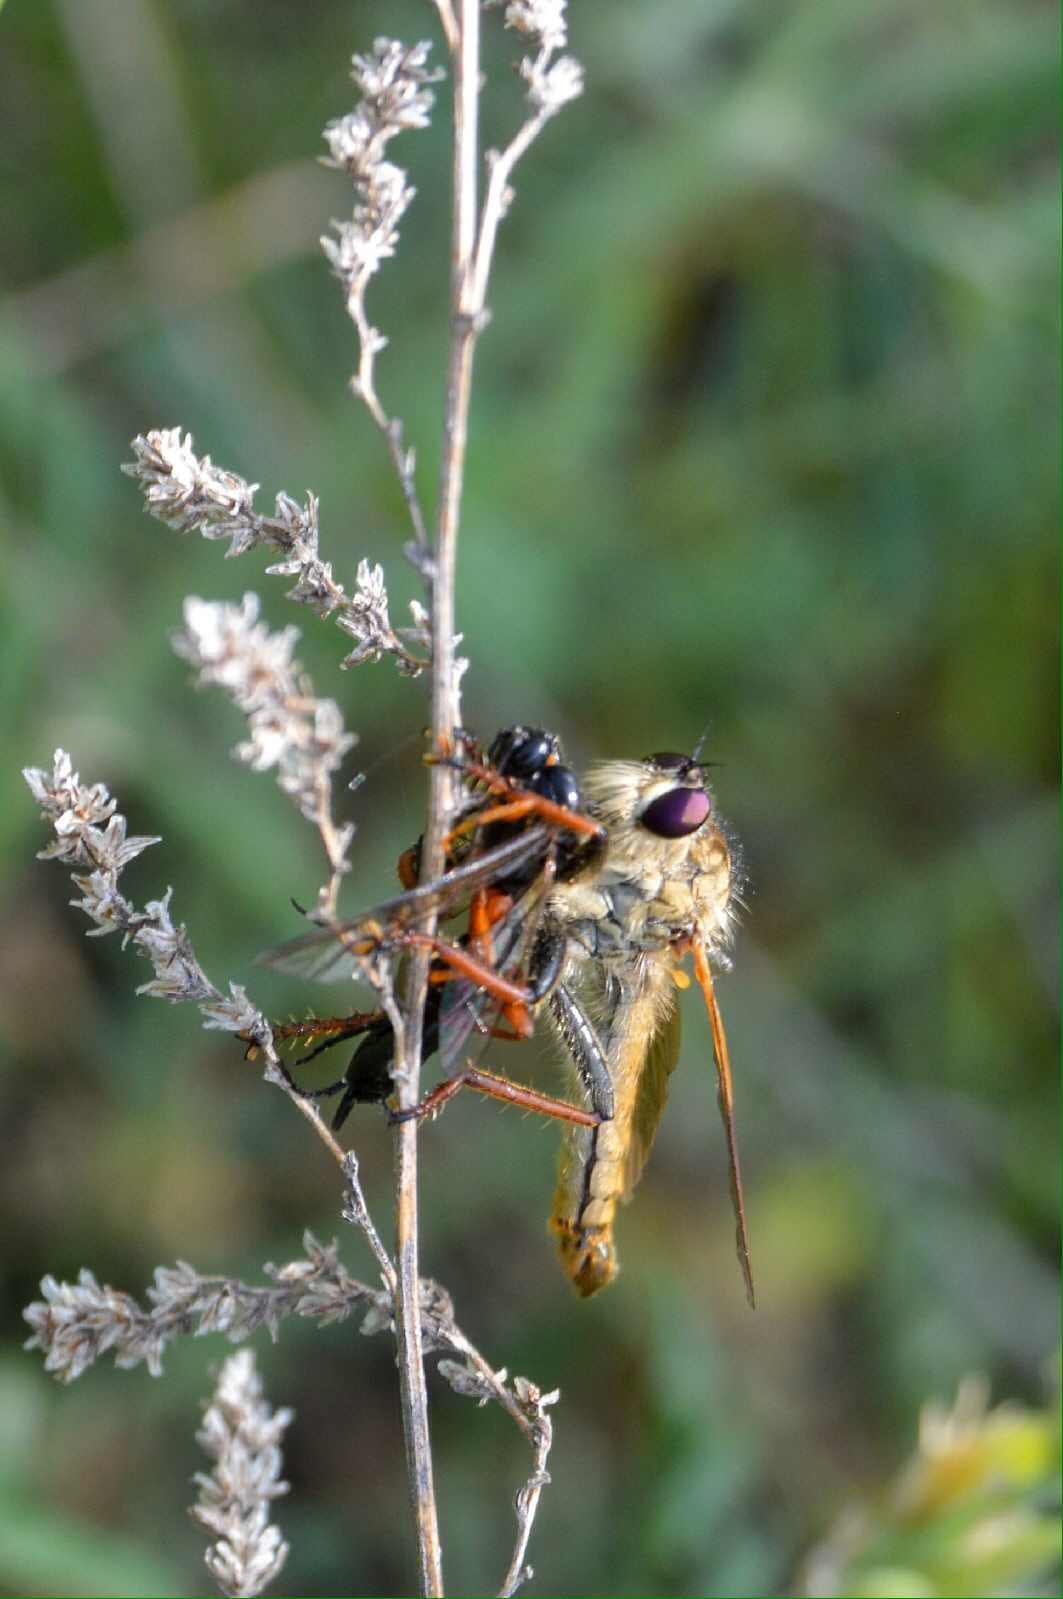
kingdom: Animalia
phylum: Arthropoda
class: Insecta
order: Diptera
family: Asilidae
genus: Echthistus
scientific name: Echthistus rufinervis
